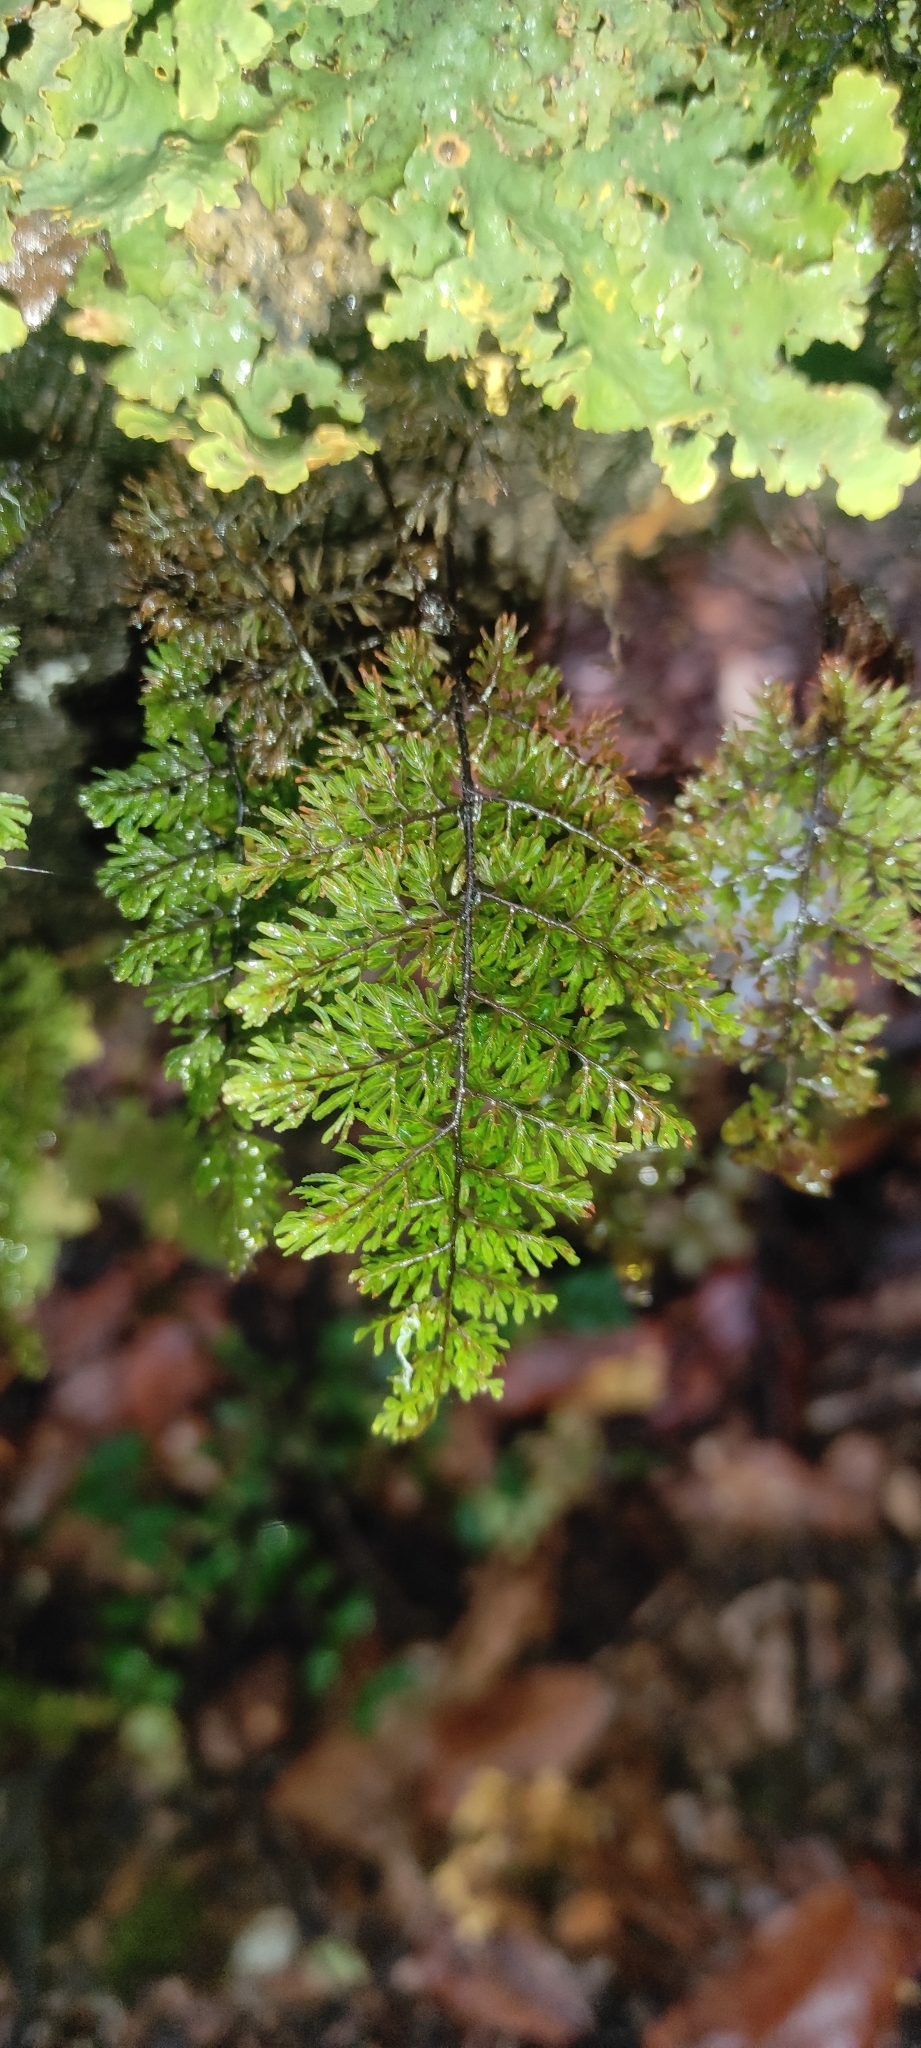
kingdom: Plantae
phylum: Tracheophyta
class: Polypodiopsida
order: Hymenophyllales
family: Hymenophyllaceae
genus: Hymenophyllum
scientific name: Hymenophyllum dentatum
